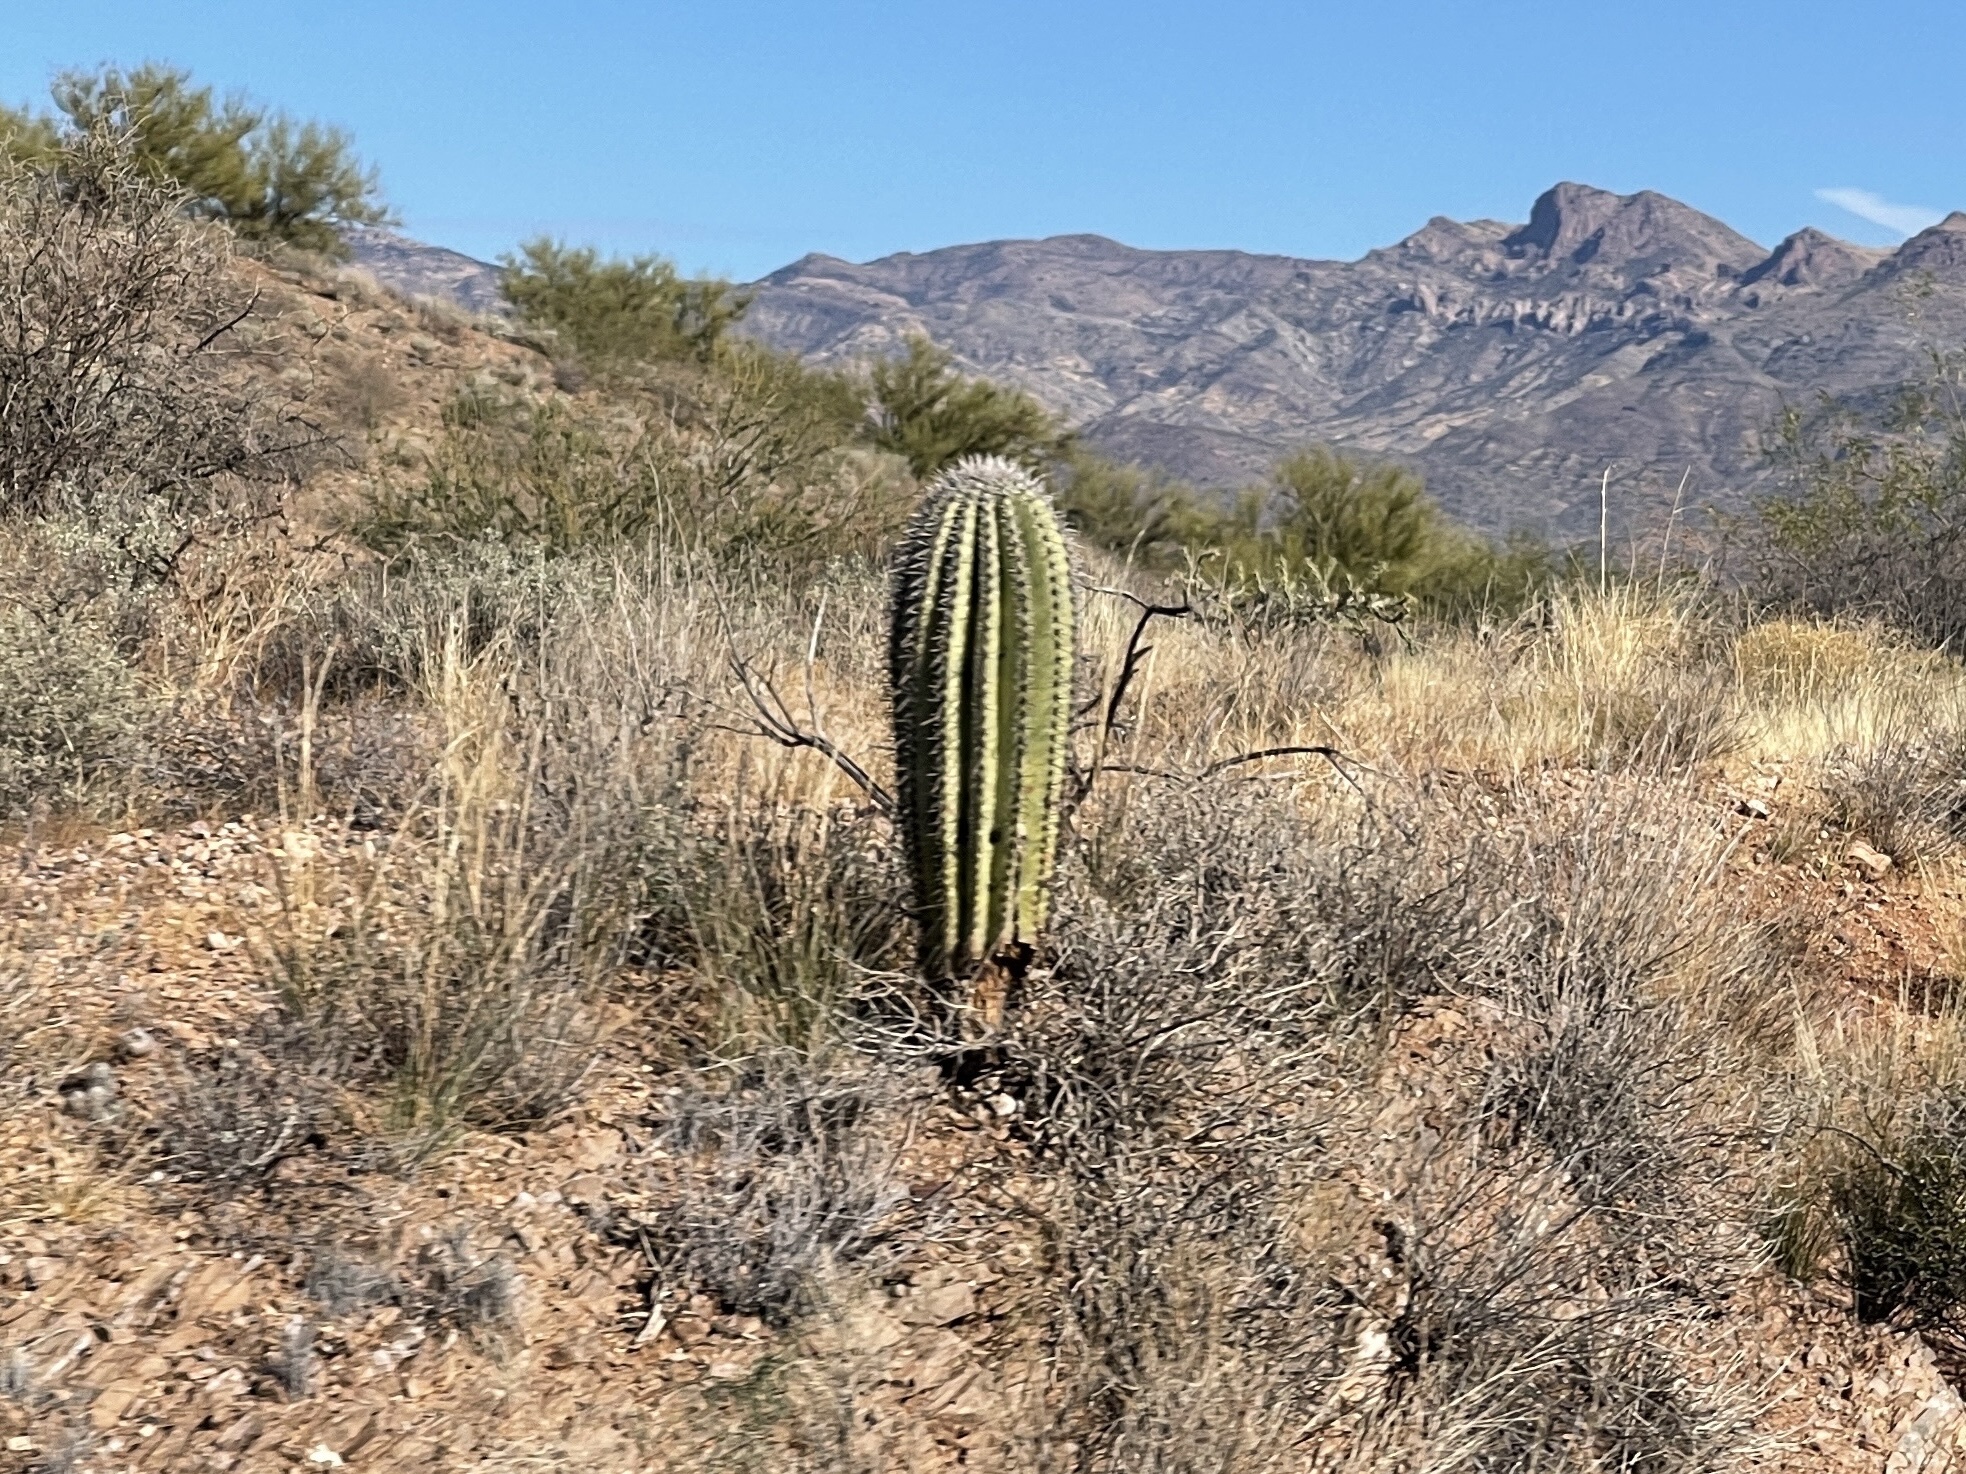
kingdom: Plantae
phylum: Tracheophyta
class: Magnoliopsida
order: Caryophyllales
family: Cactaceae
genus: Carnegiea
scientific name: Carnegiea gigantea
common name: Saguaro
